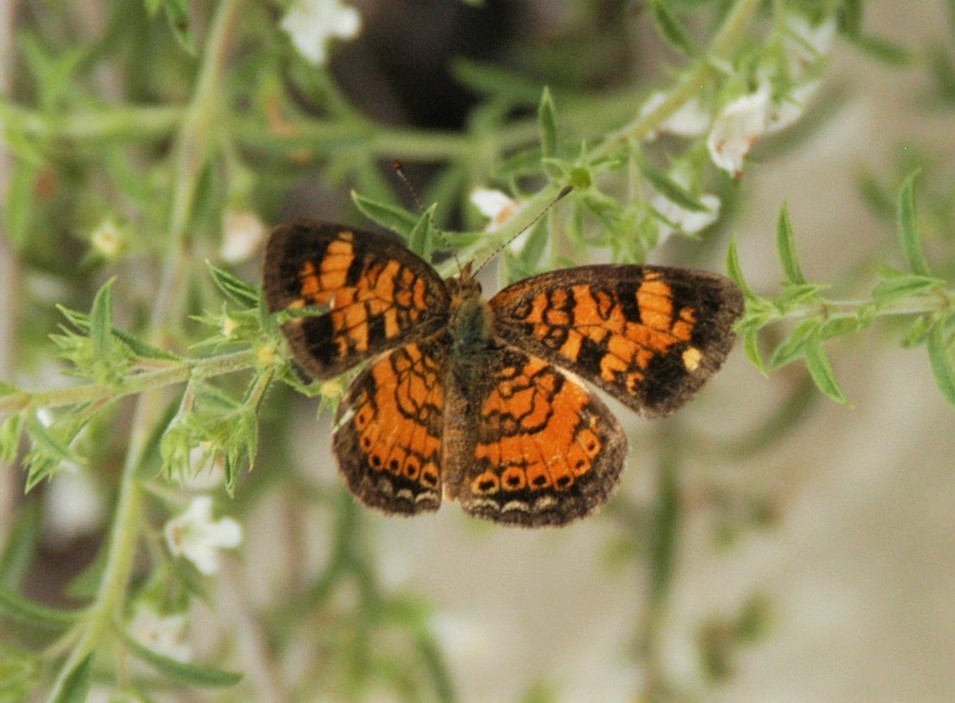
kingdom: Animalia
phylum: Arthropoda
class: Insecta
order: Lepidoptera
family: Nymphalidae
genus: Phyciodes
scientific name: Phyciodes tharos
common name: Pearl crescent
